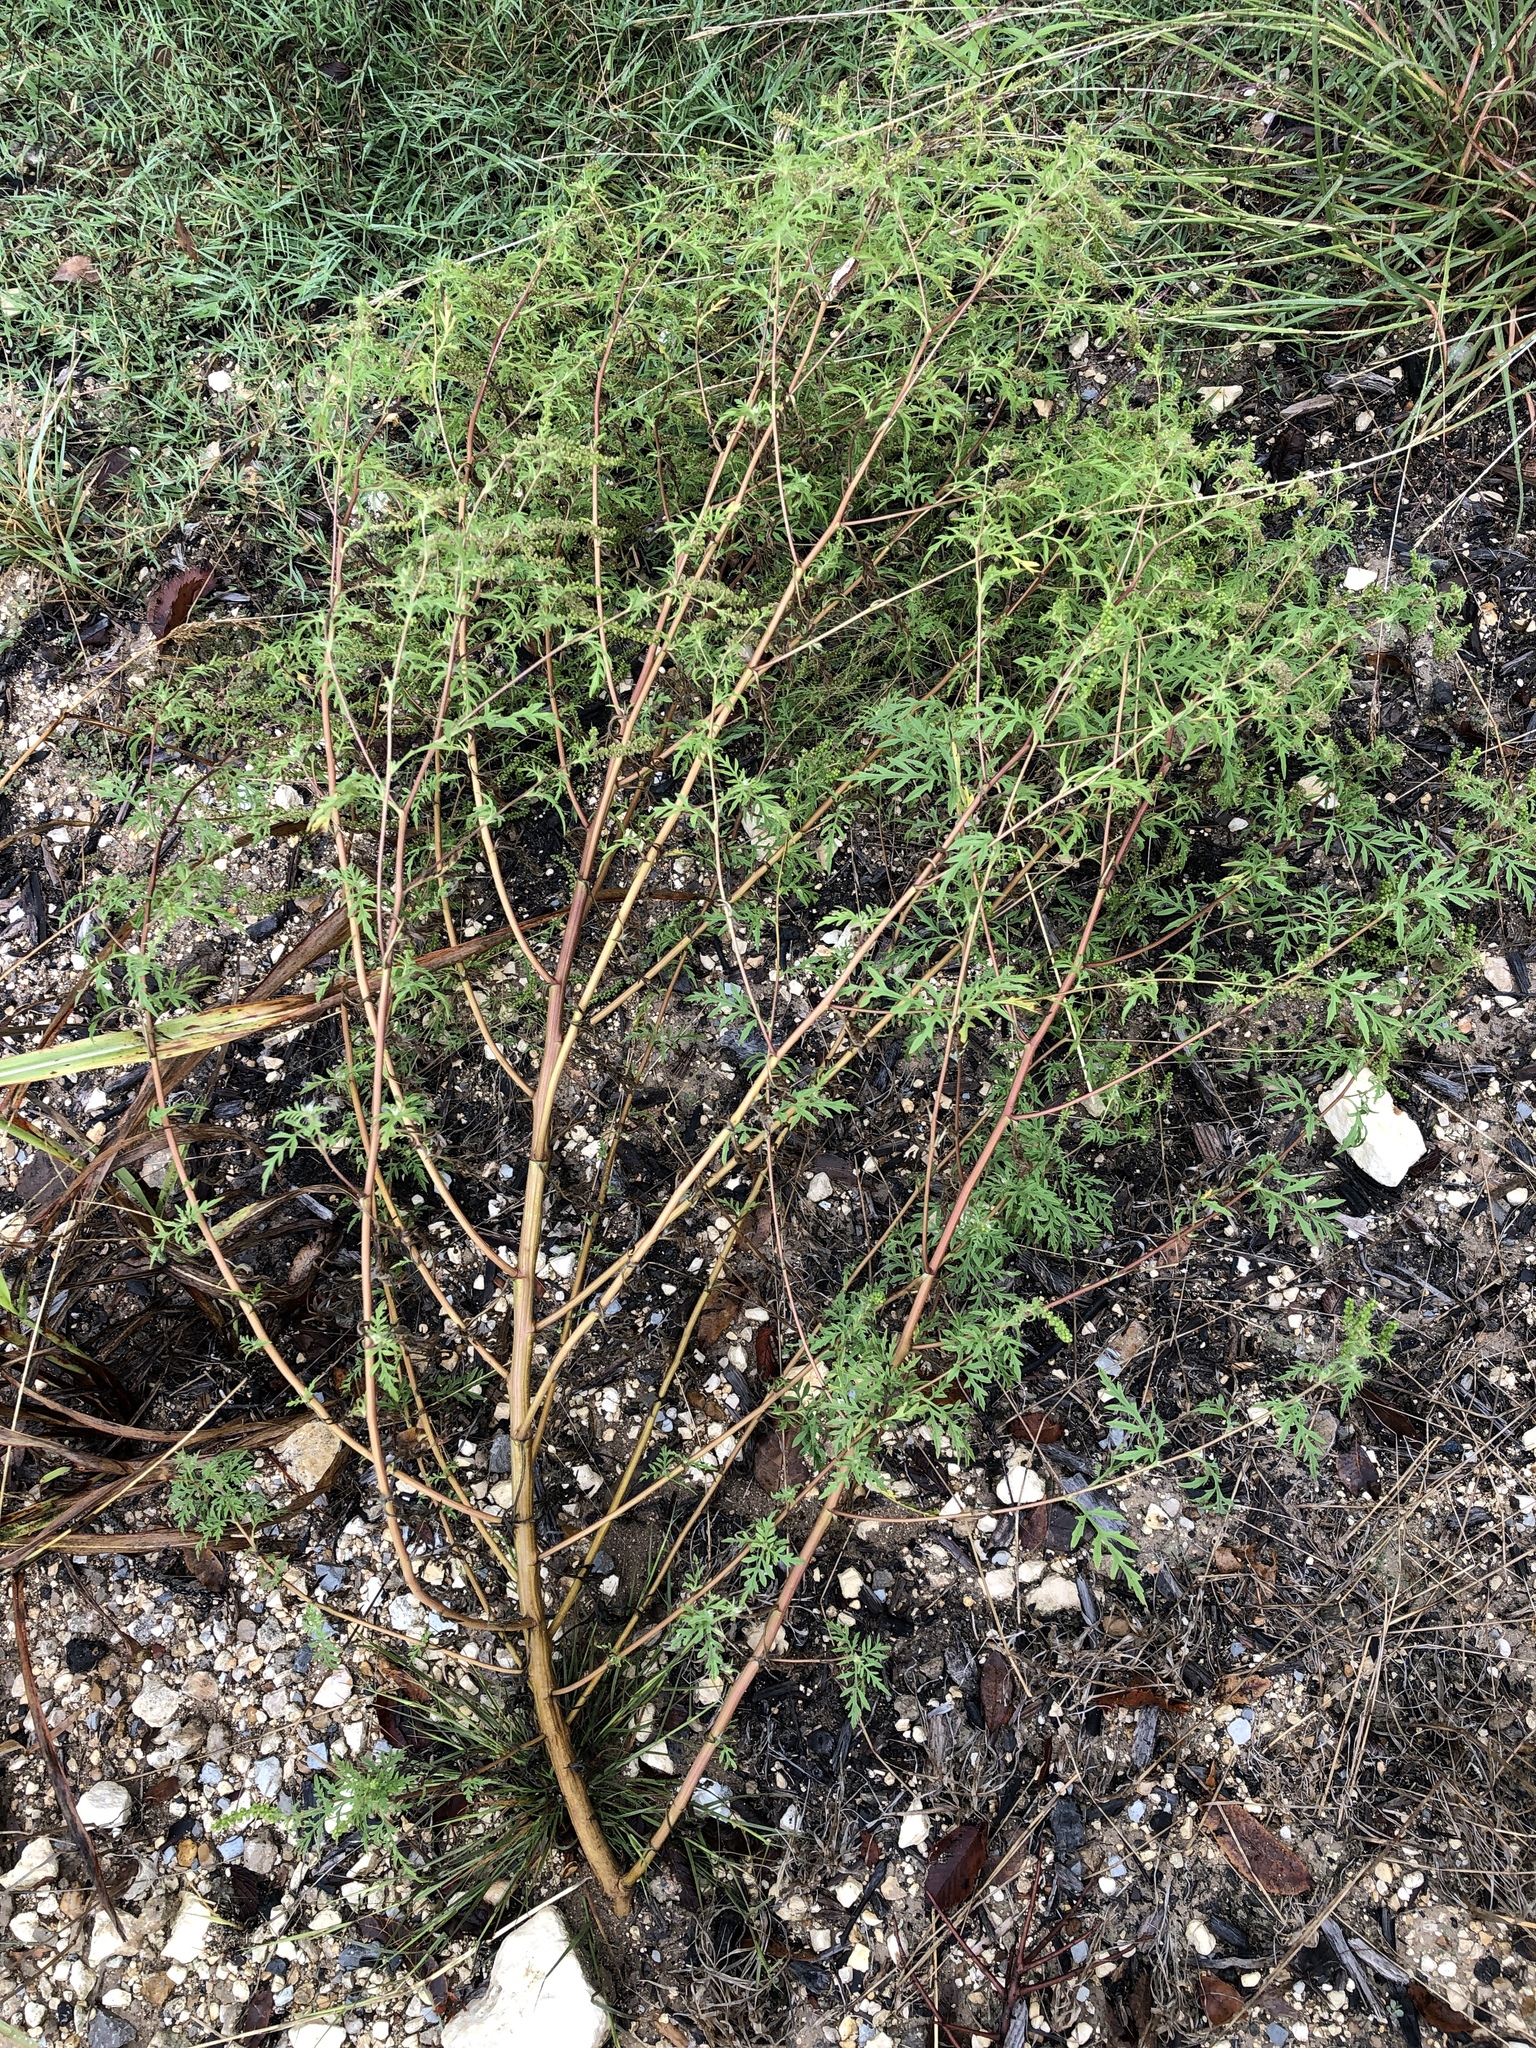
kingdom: Plantae
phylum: Tracheophyta
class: Magnoliopsida
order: Asterales
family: Asteraceae
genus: Ambrosia
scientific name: Ambrosia artemisiifolia
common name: Annual ragweed
